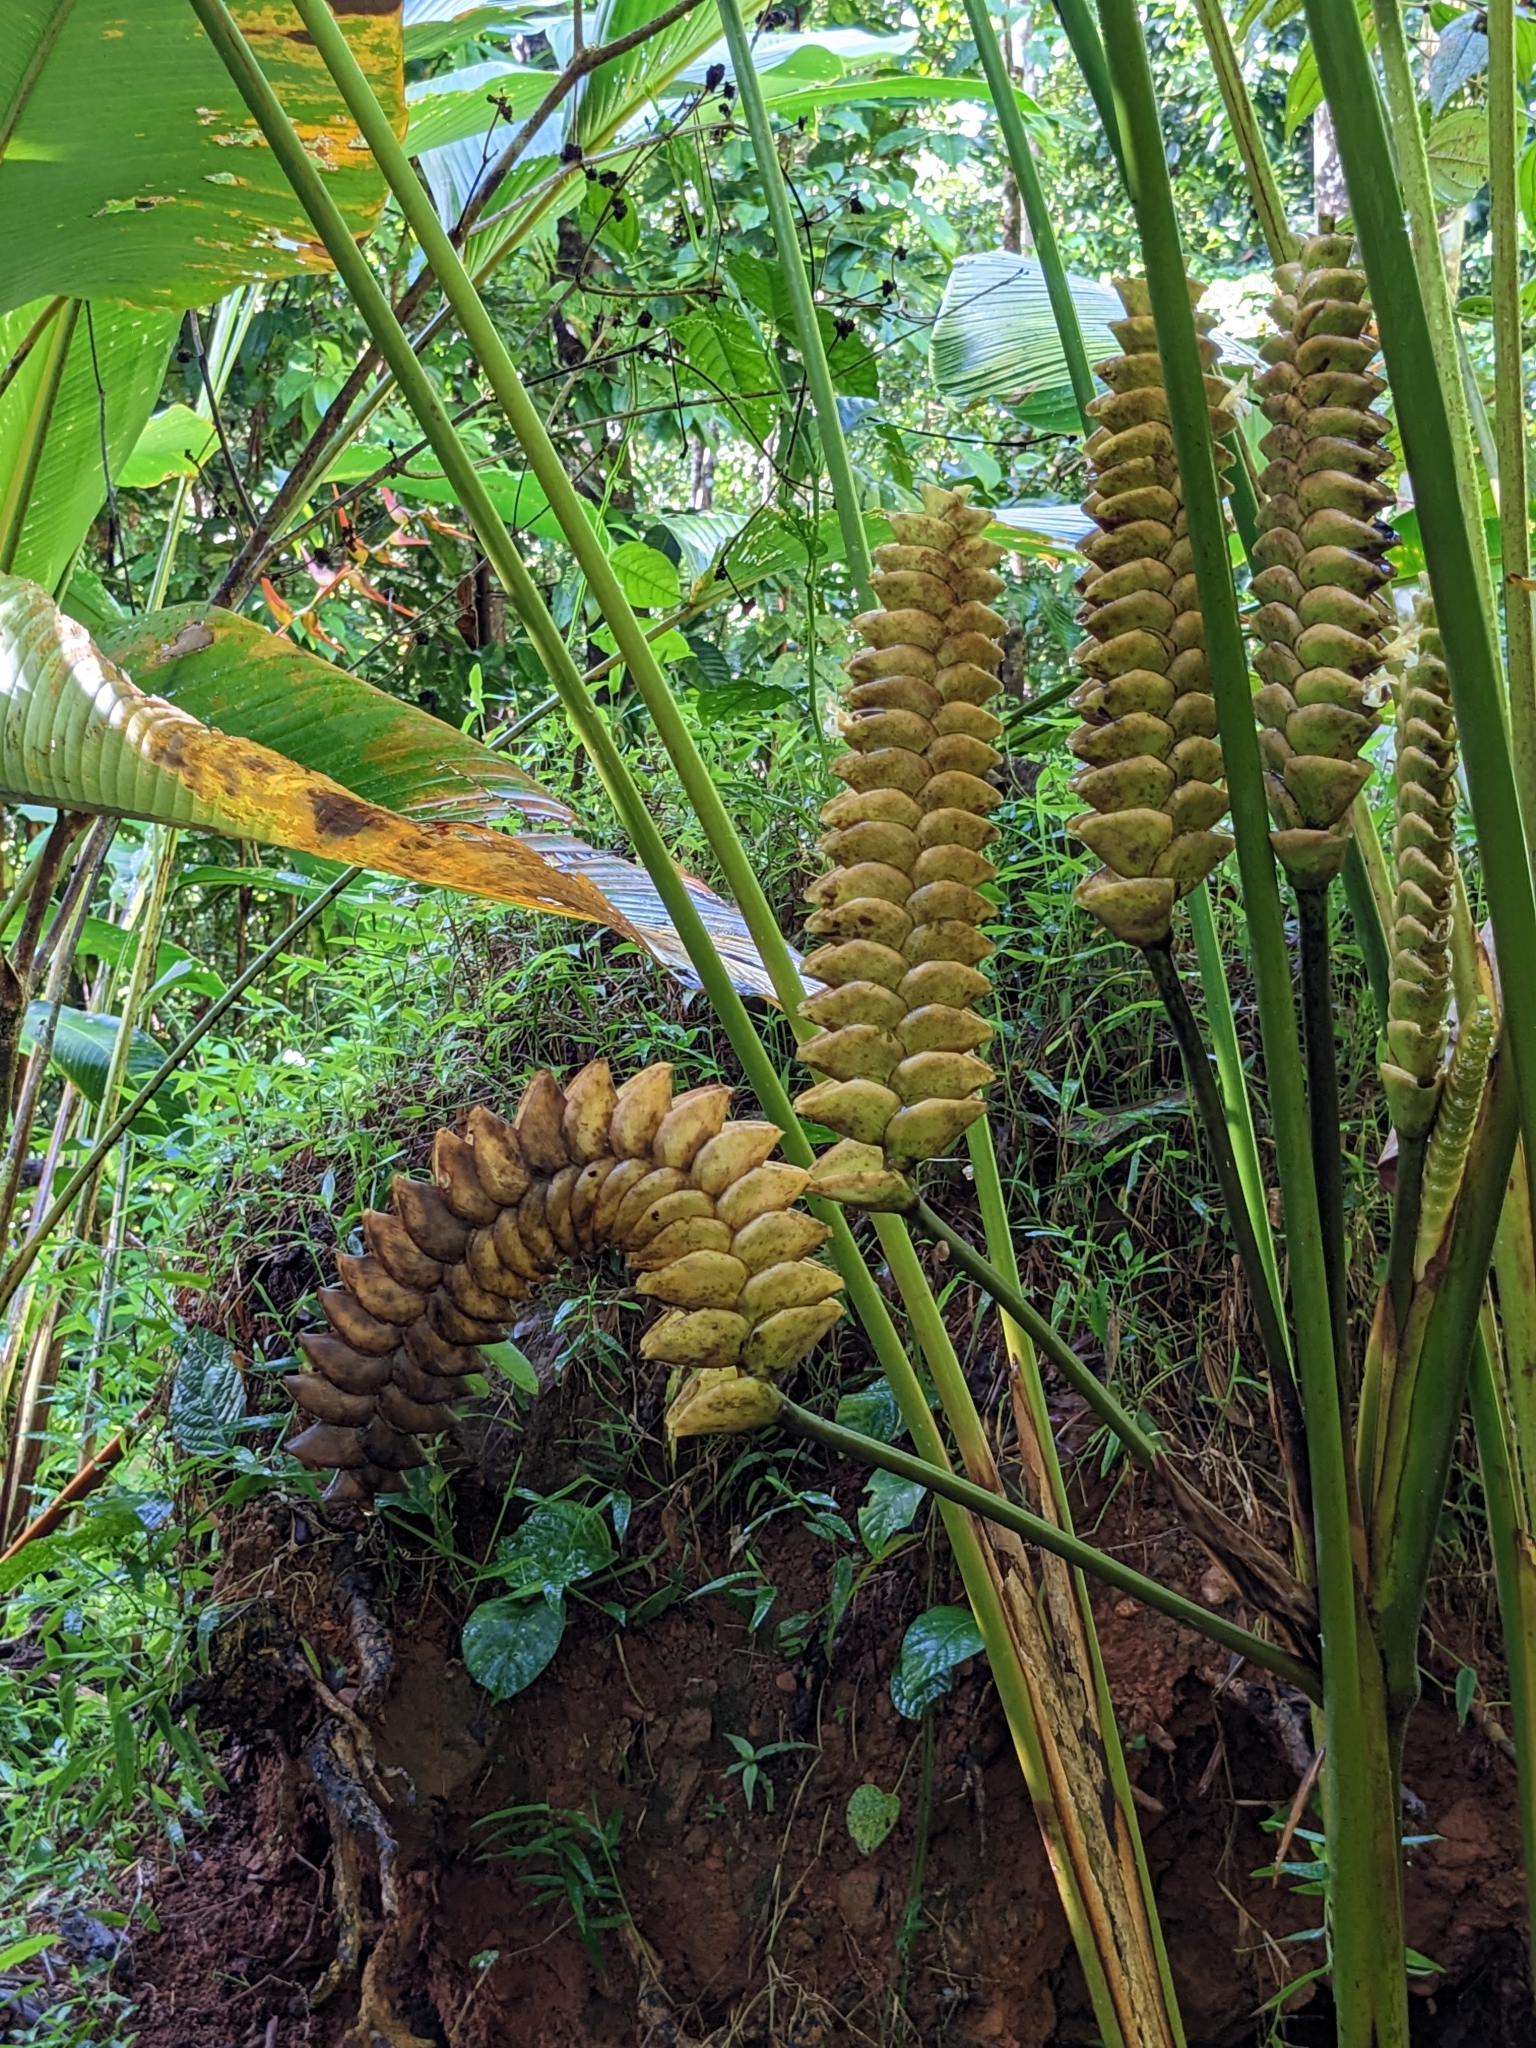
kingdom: Plantae
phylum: Tracheophyta
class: Liliopsida
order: Zingiberales
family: Marantaceae
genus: Calathea
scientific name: Calathea crotalifera
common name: Rattlesnake plant
